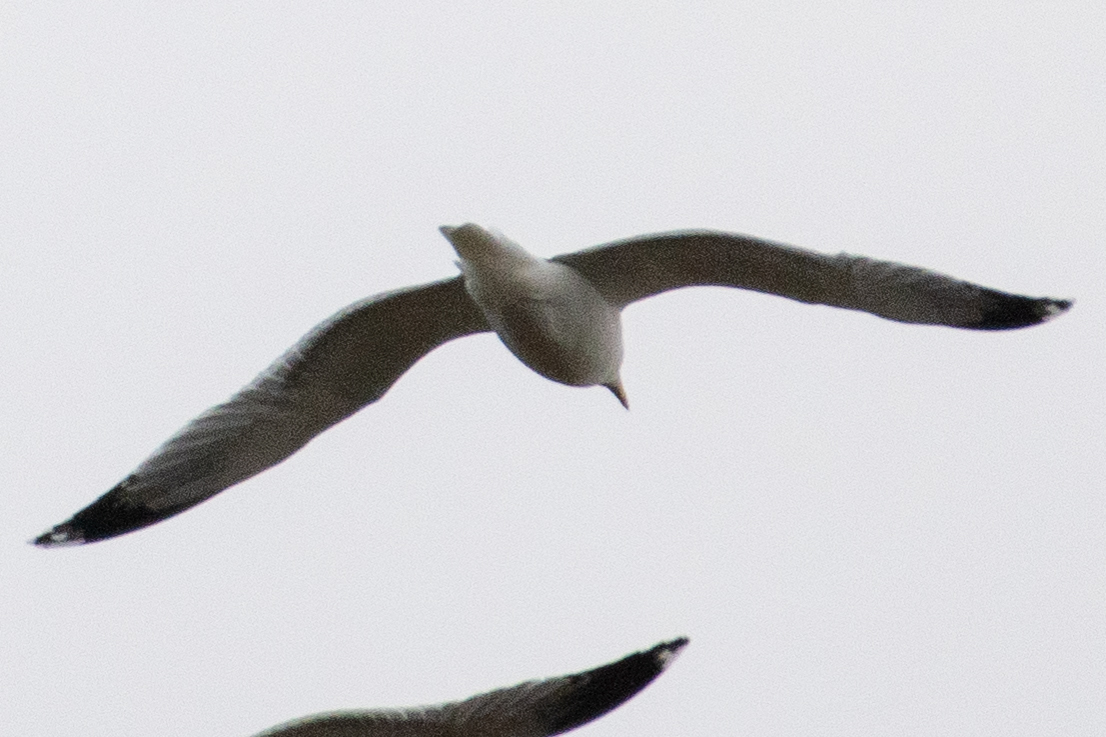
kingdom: Animalia
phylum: Chordata
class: Aves
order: Charadriiformes
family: Laridae
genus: Larus
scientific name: Larus
